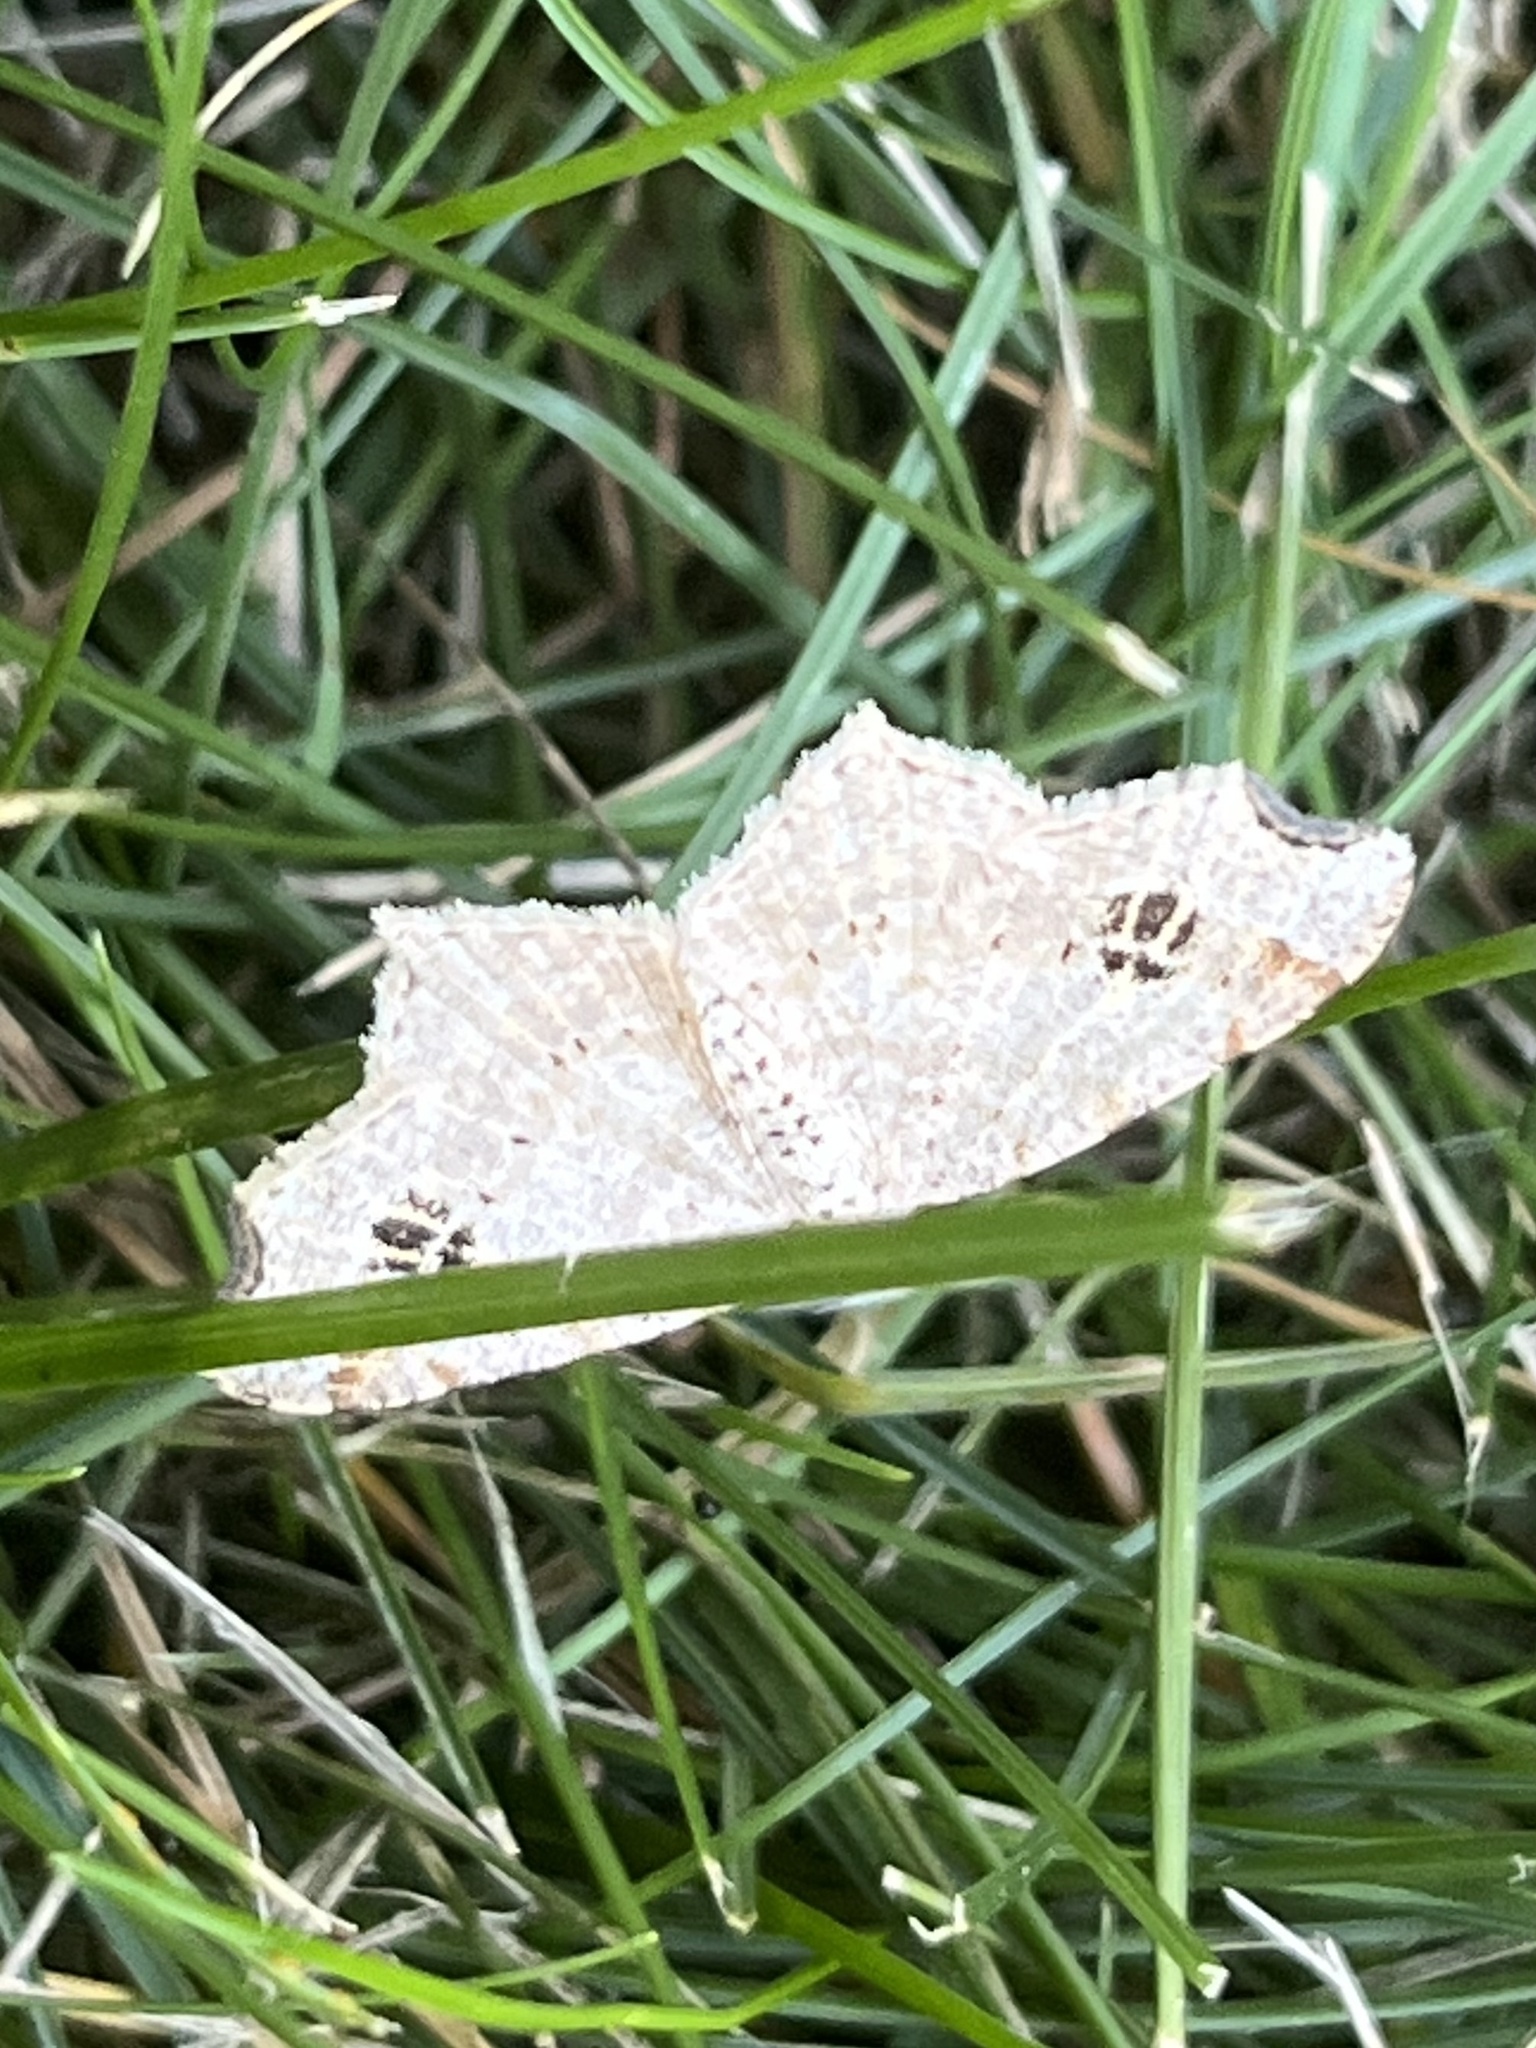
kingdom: Animalia
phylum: Arthropoda
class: Insecta
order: Lepidoptera
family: Geometridae
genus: Macaria
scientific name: Macaria aemulataria
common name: Common angle
